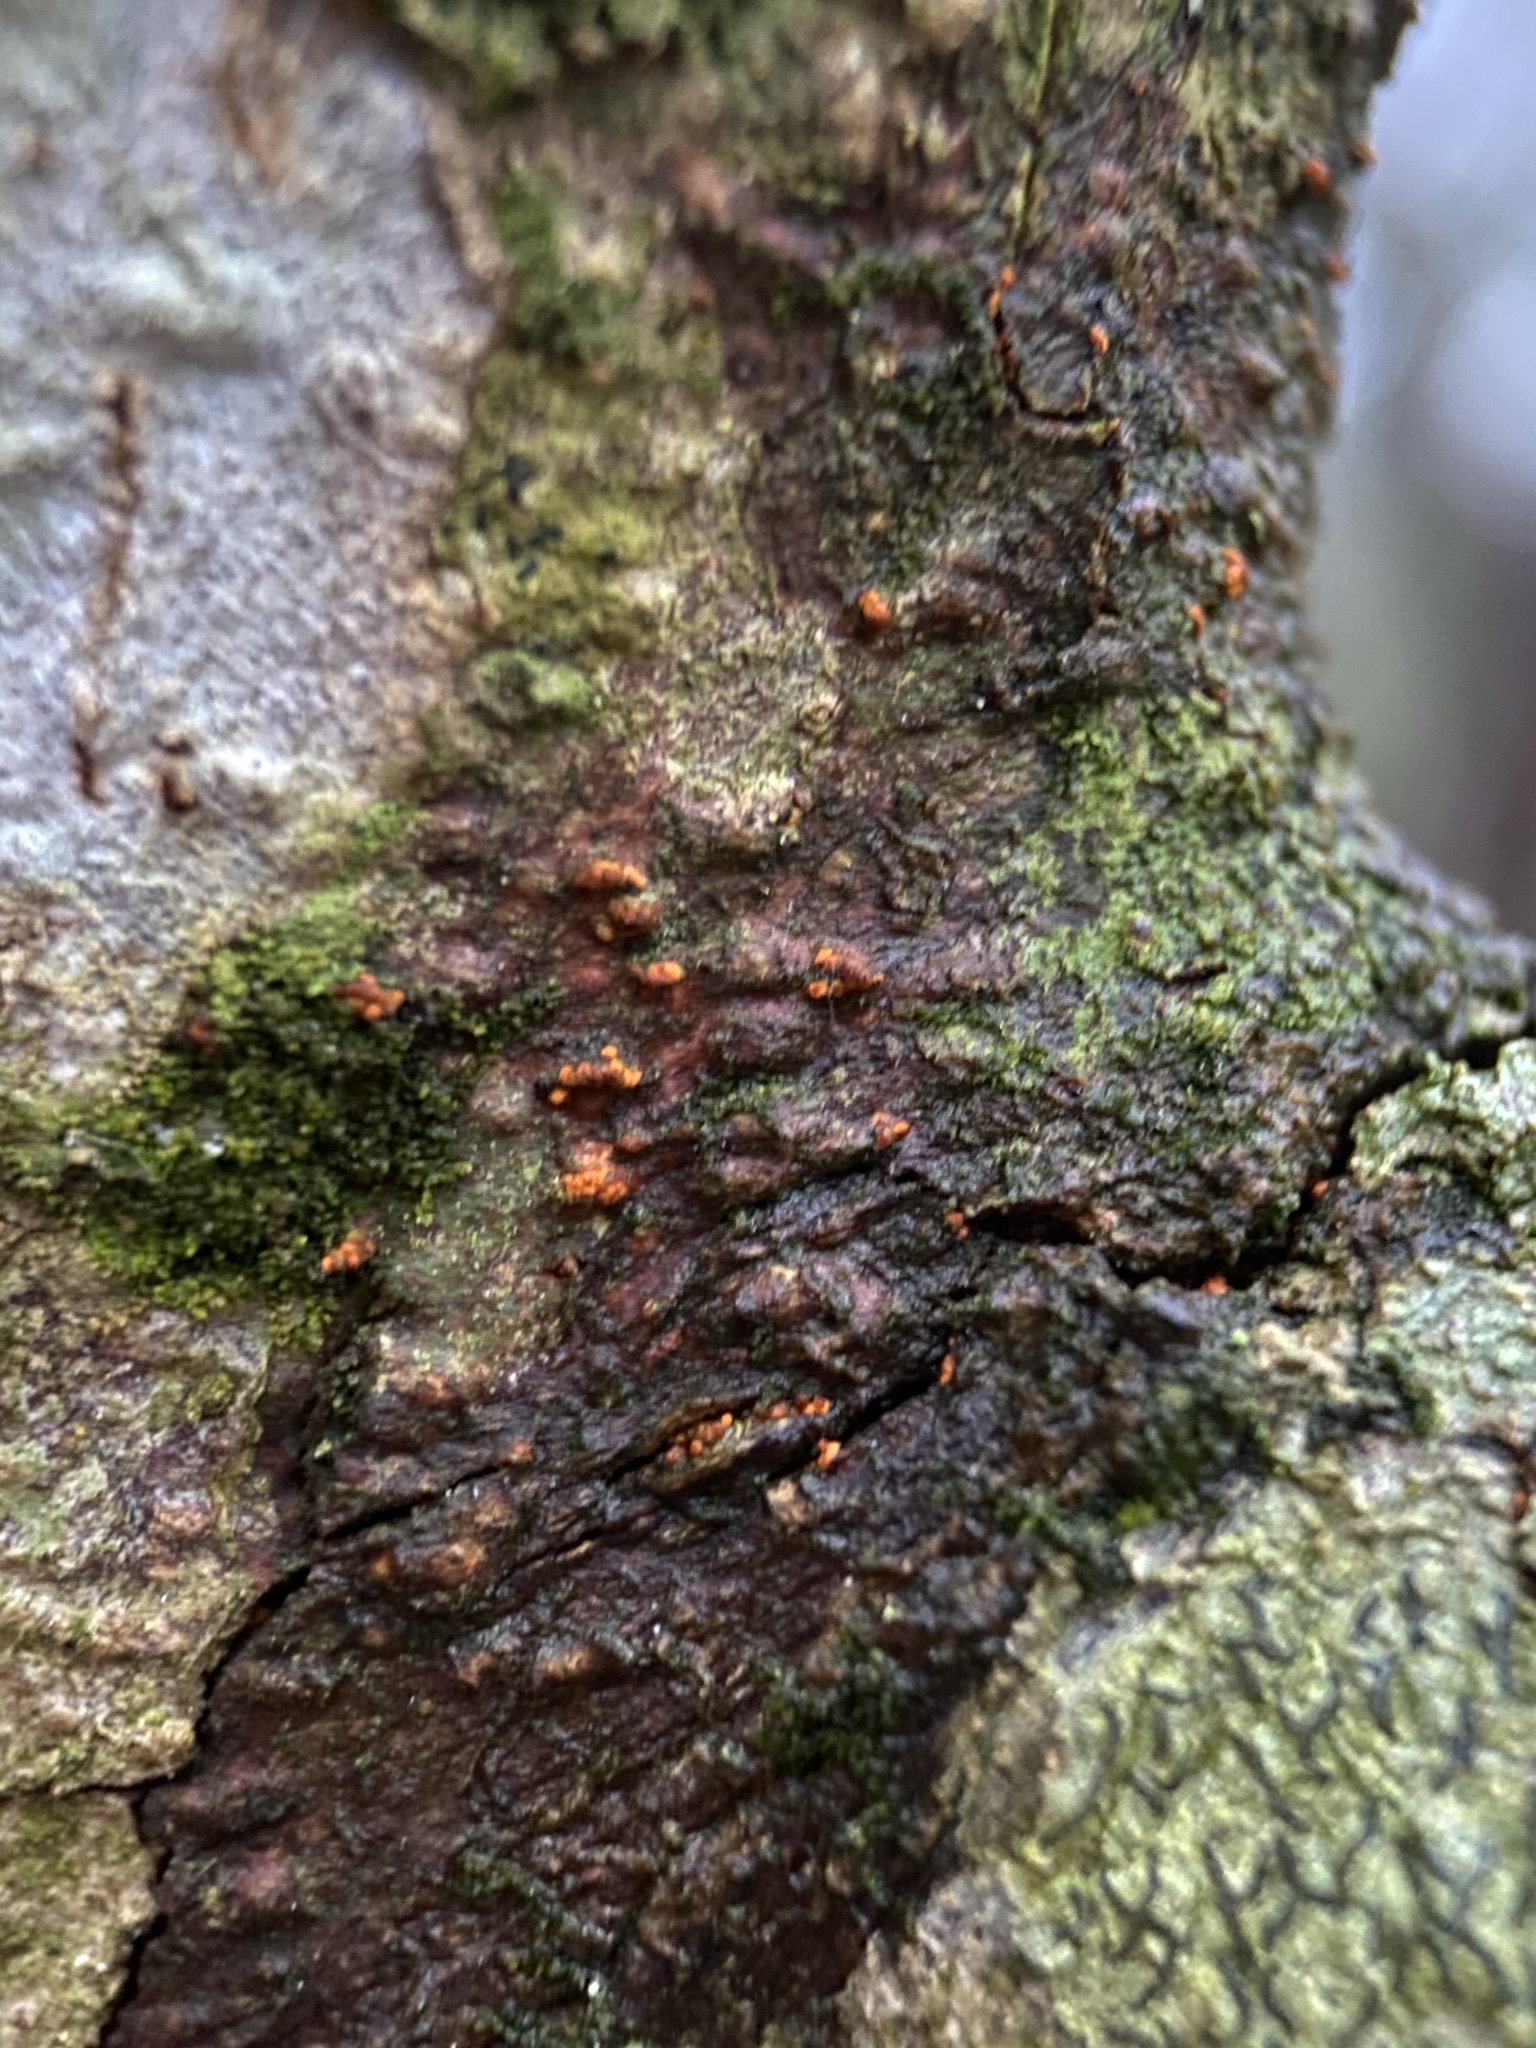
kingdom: Fungi
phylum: Ascomycota
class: Sordariomycetes
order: Diaporthales
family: Cryphonectriaceae
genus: Cryphonectria
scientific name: Cryphonectria parasitica
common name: Chestnut blight
